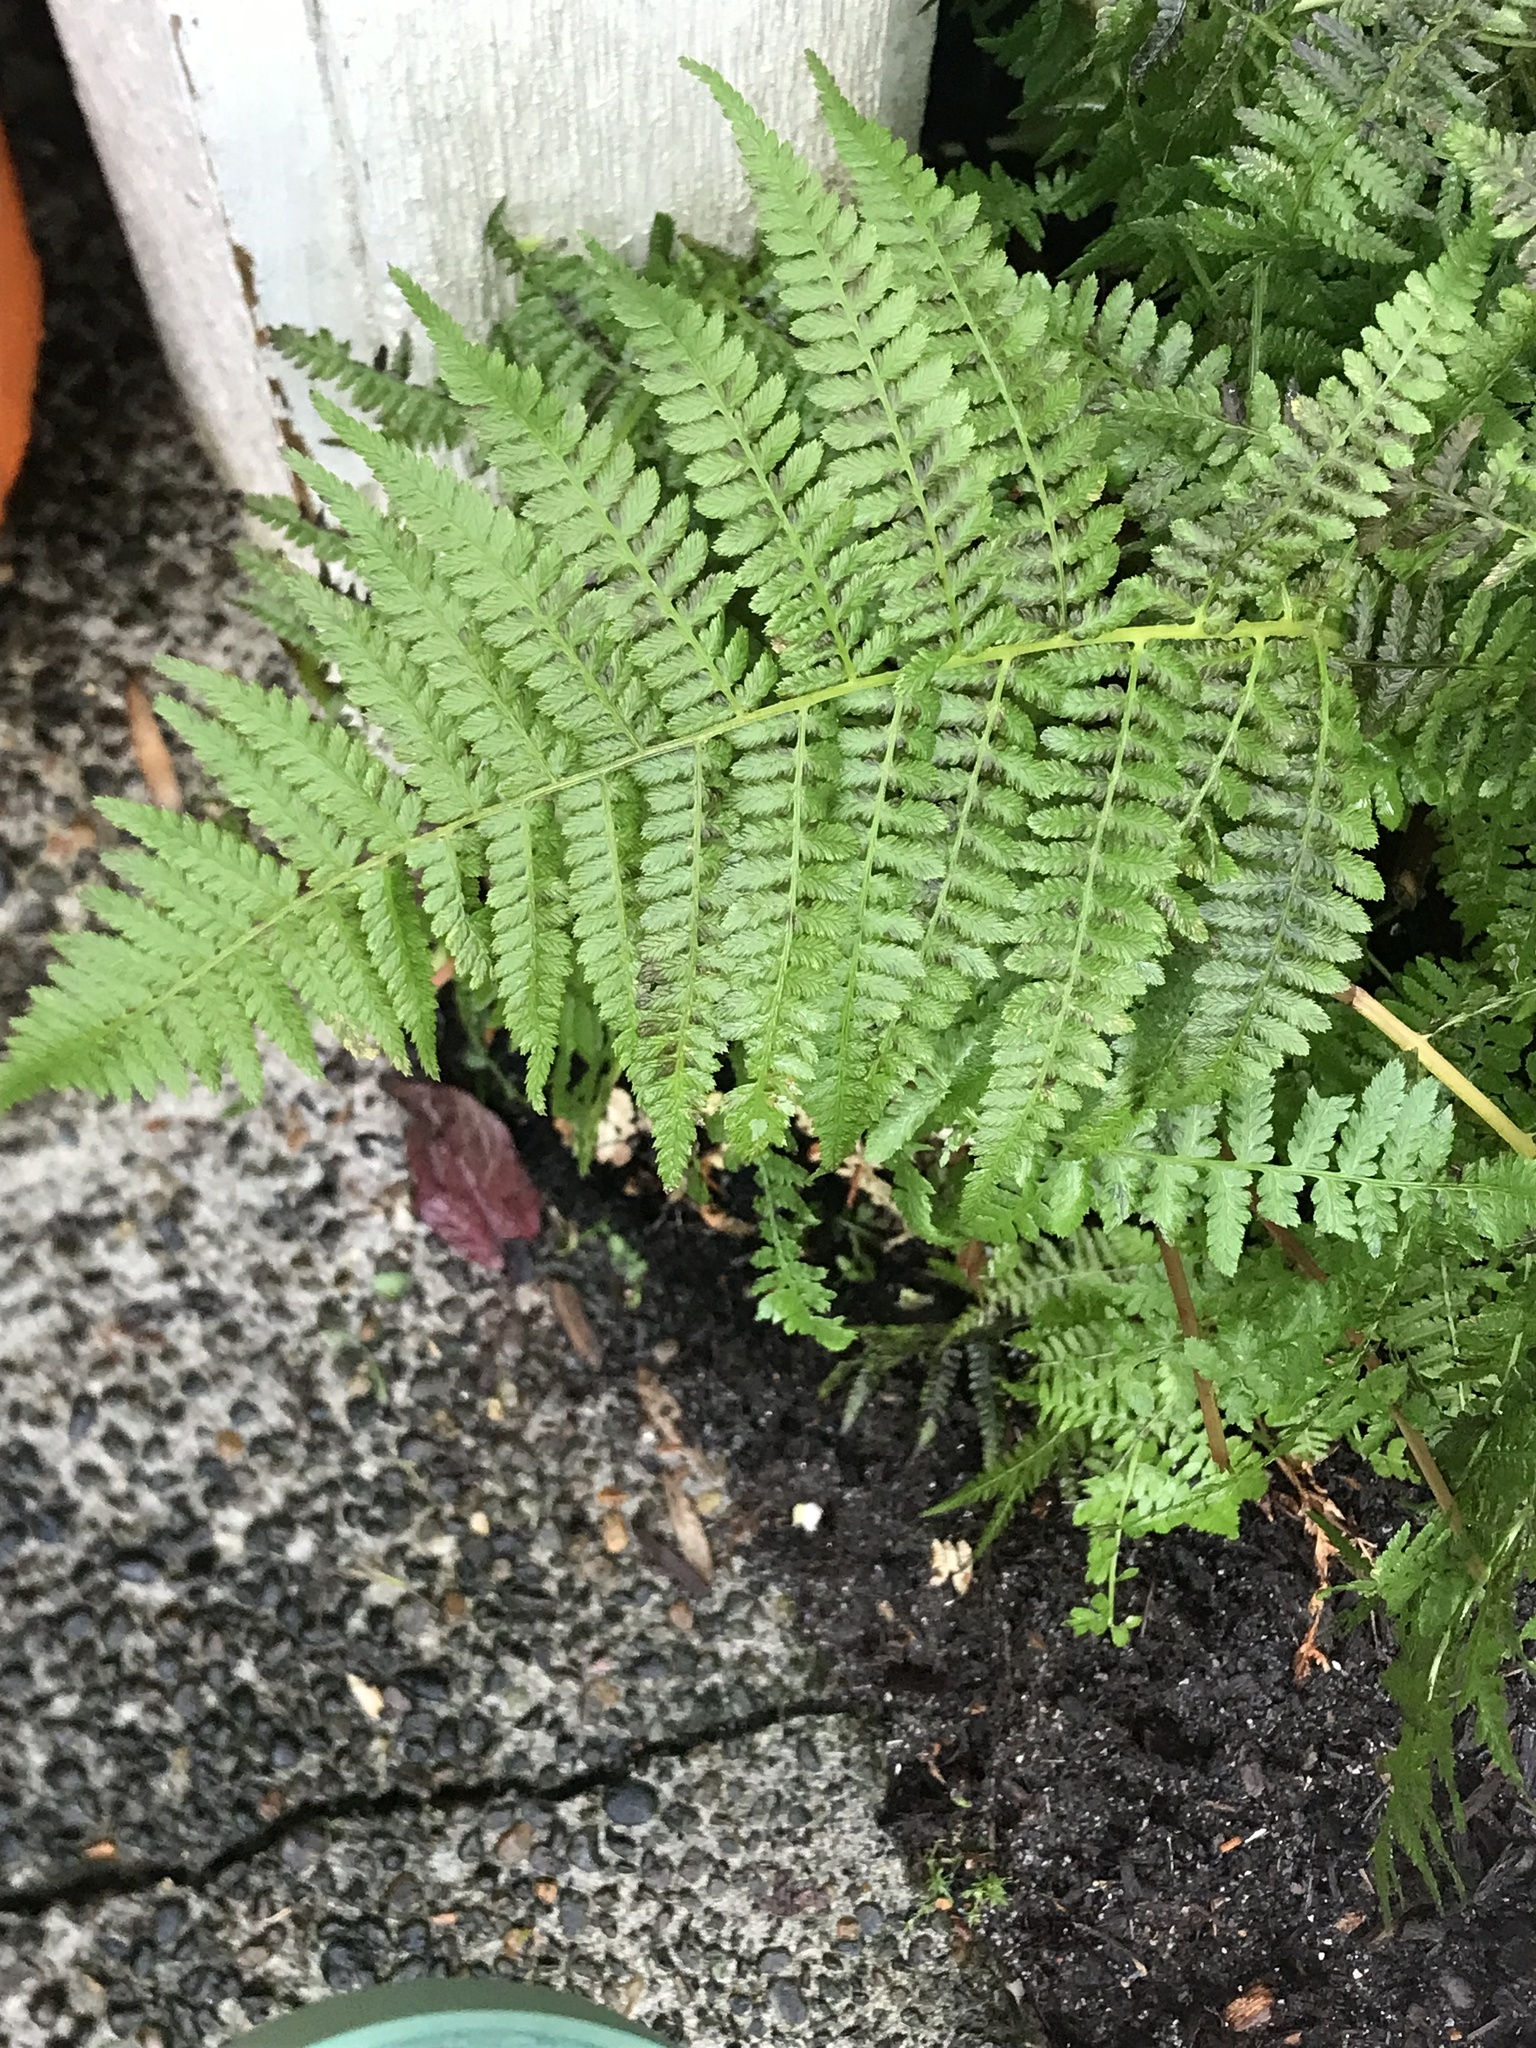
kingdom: Plantae
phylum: Tracheophyta
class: Polypodiopsida
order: Polypodiales
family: Athyriaceae
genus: Athyrium
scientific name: Athyrium filix-femina
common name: Lady fern
